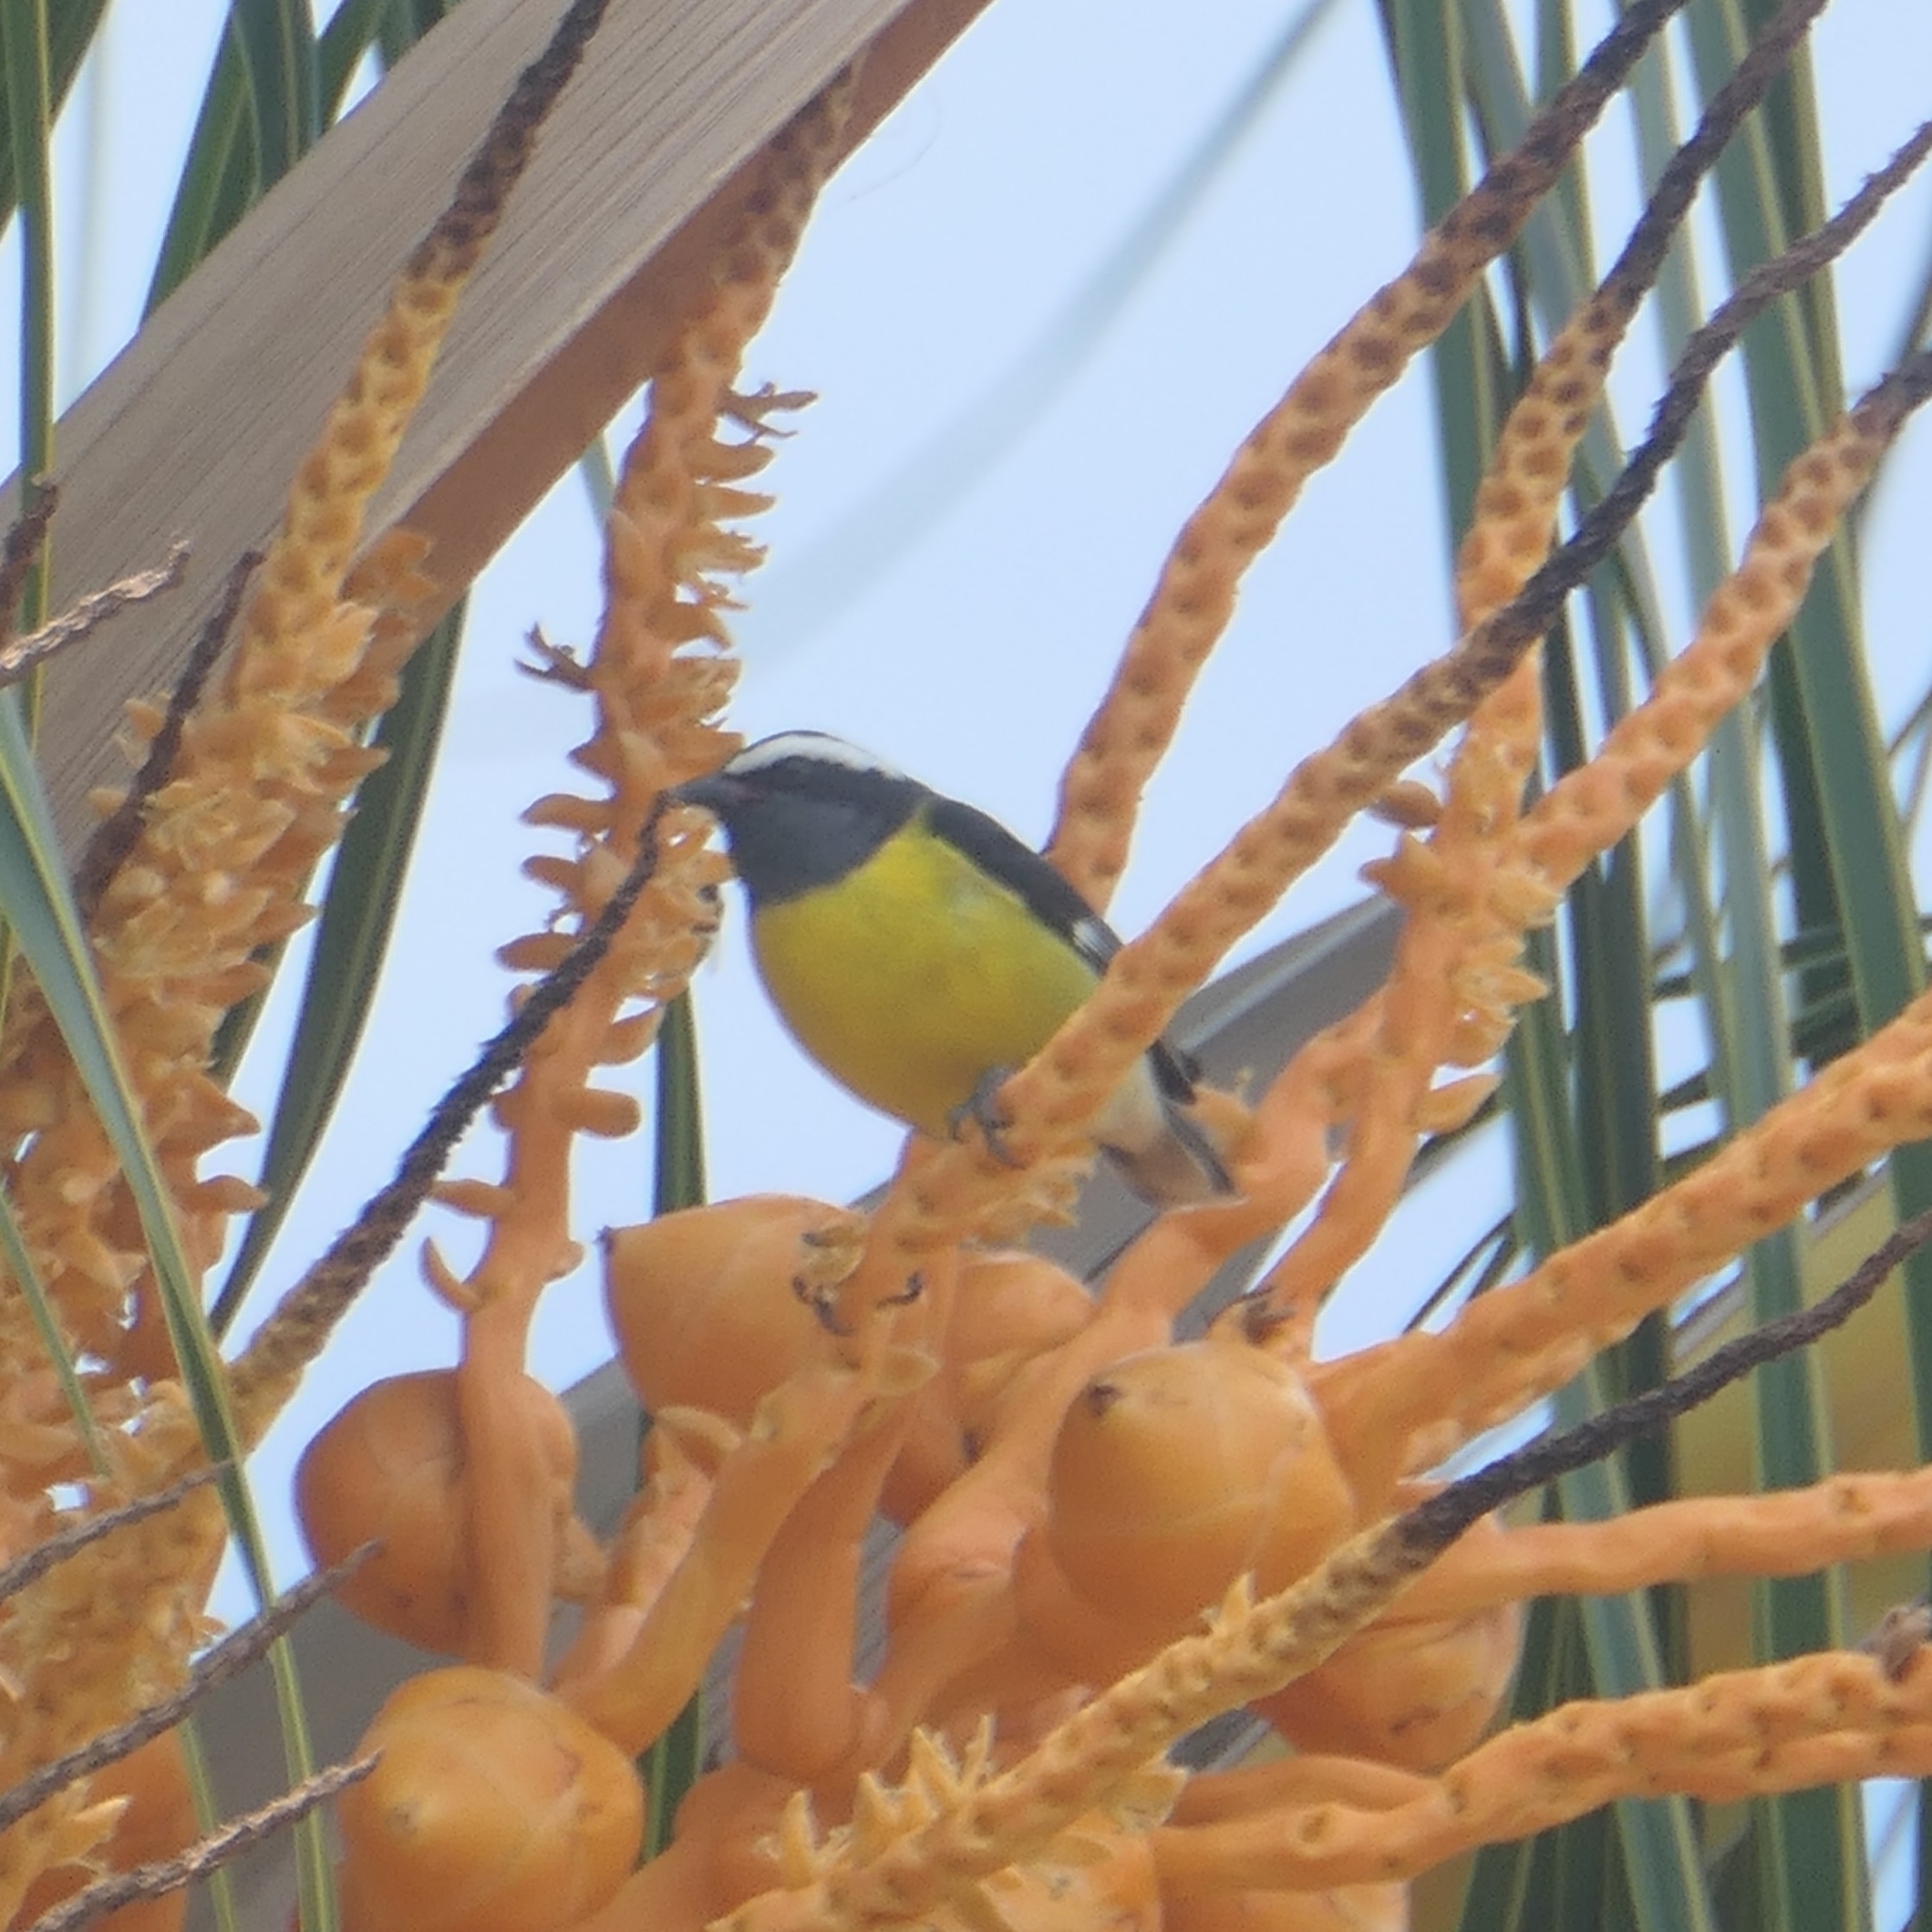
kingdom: Animalia
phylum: Chordata
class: Aves
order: Passeriformes
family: Thraupidae
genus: Coereba
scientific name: Coereba flaveola
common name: Bananaquit
